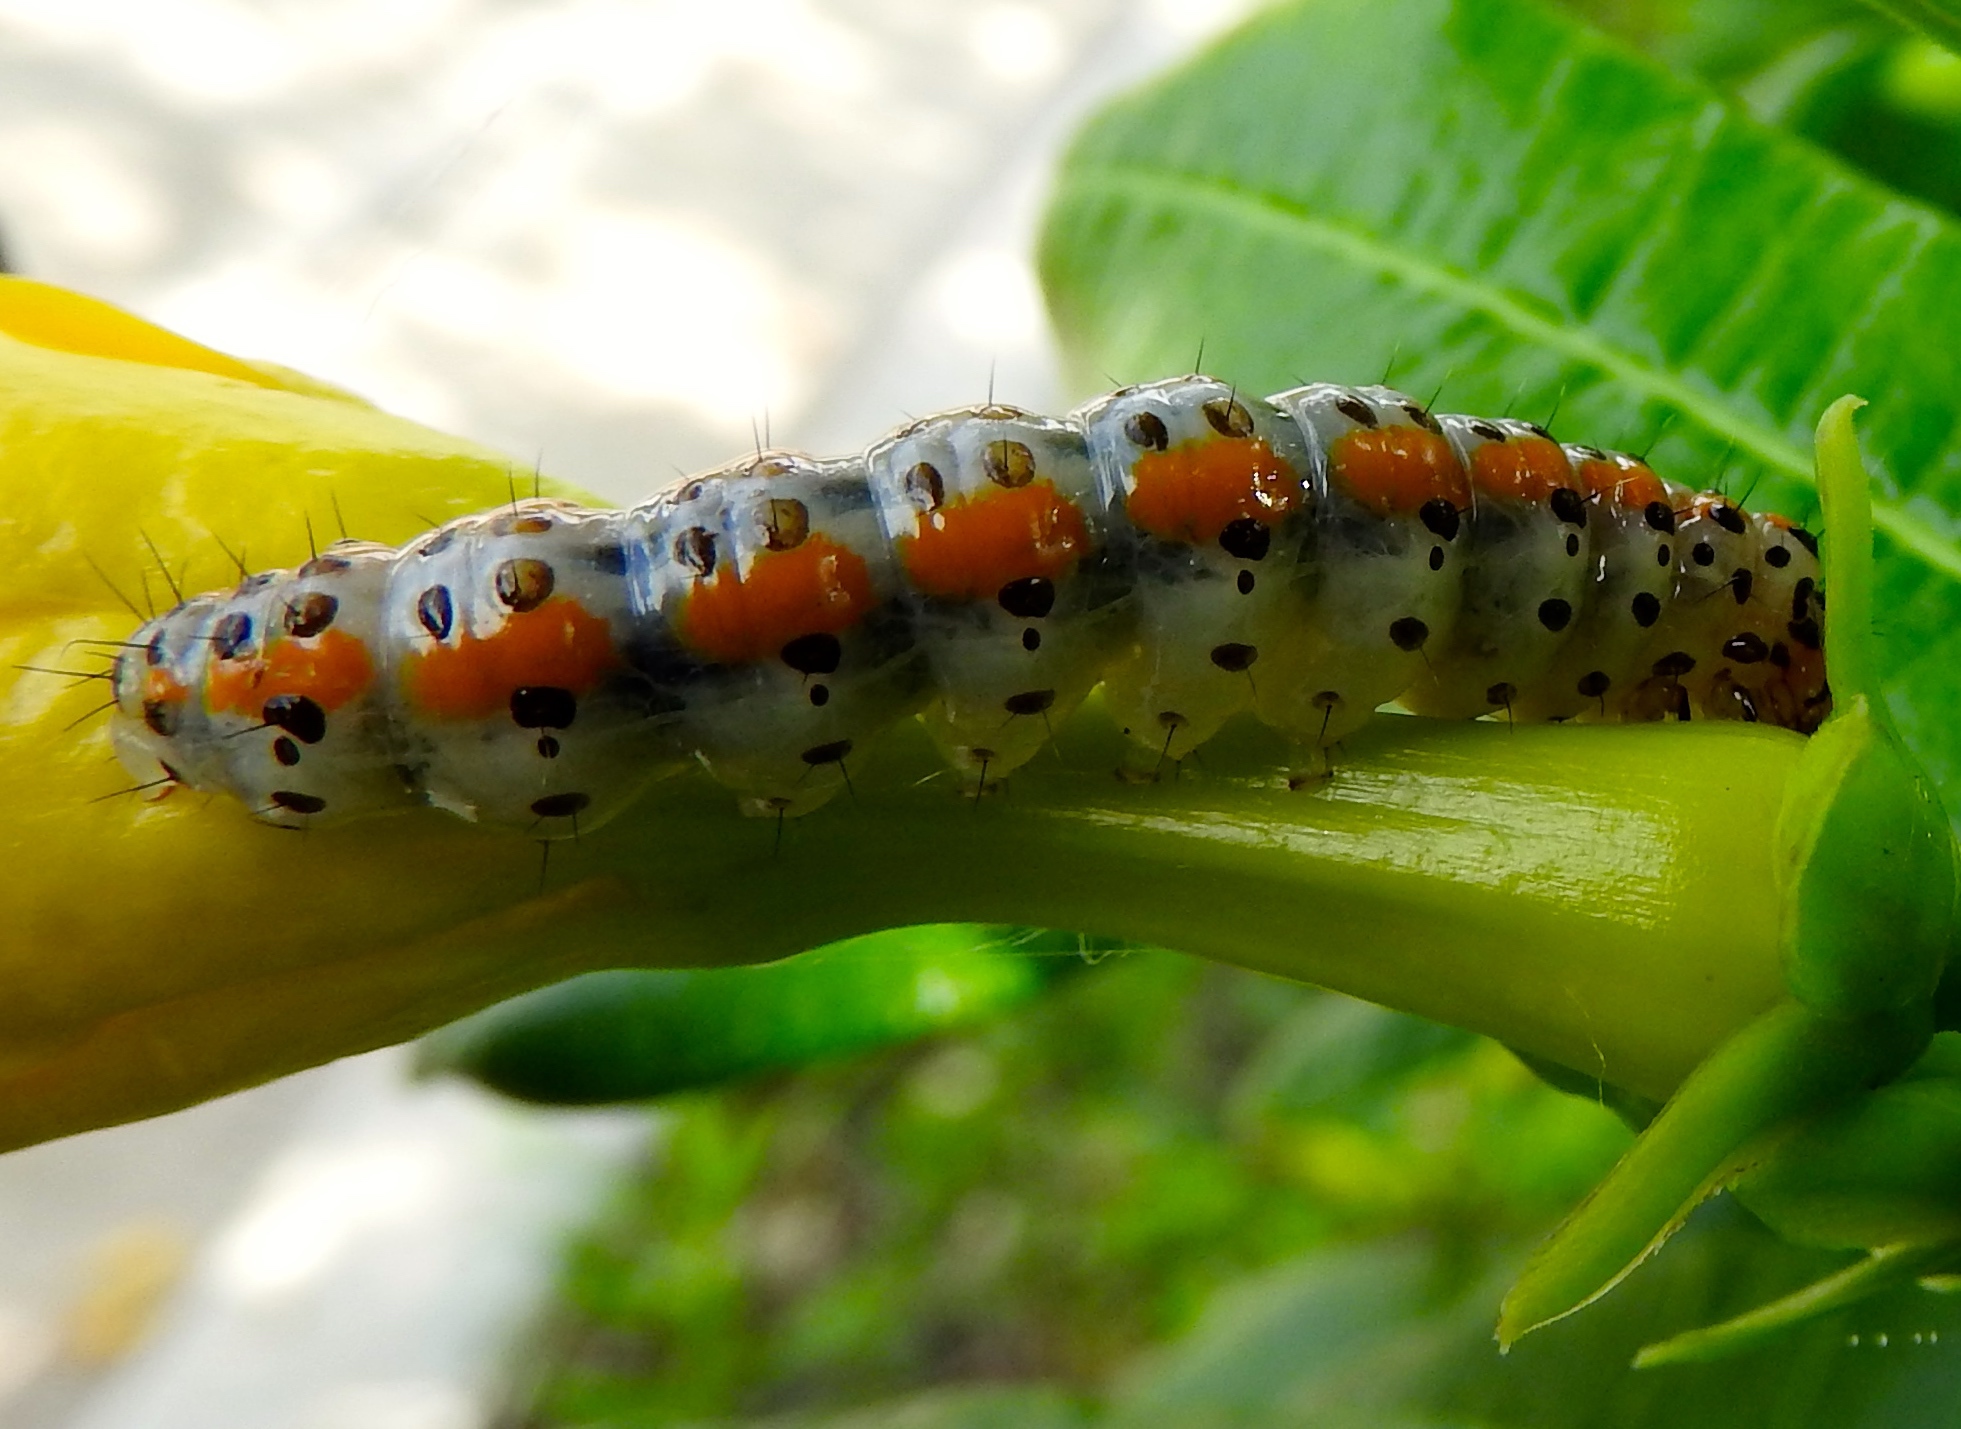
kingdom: Animalia
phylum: Arthropoda
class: Insecta
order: Lepidoptera
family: Crambidae
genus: Palpita
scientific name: Palpita
